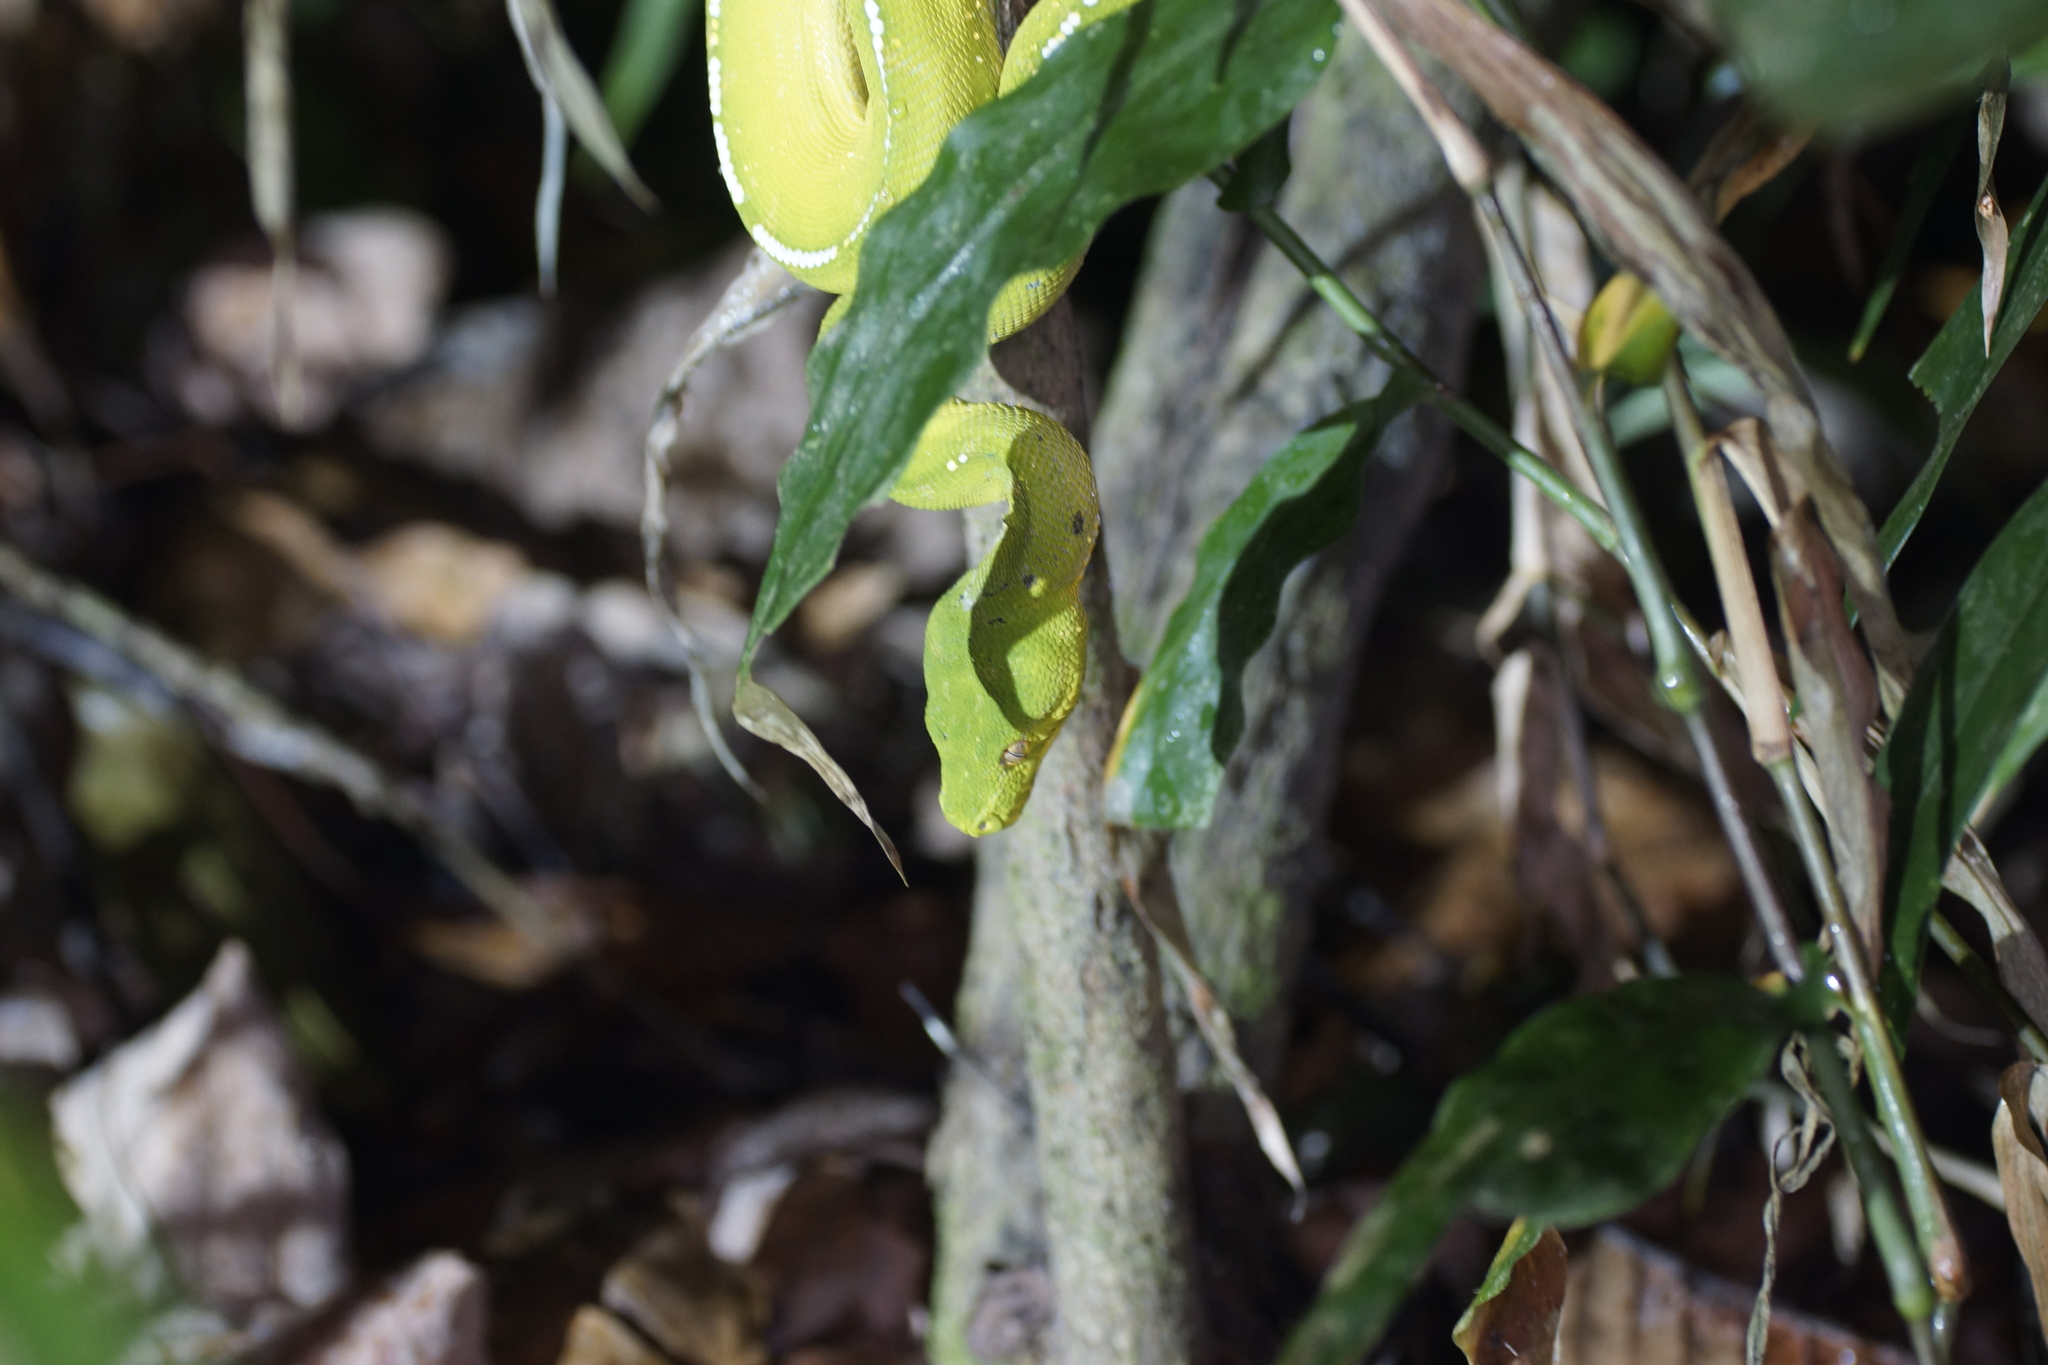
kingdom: Animalia
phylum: Chordata
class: Squamata
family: Pythonidae
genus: Morelia
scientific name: Morelia viridis
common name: Green tree python
